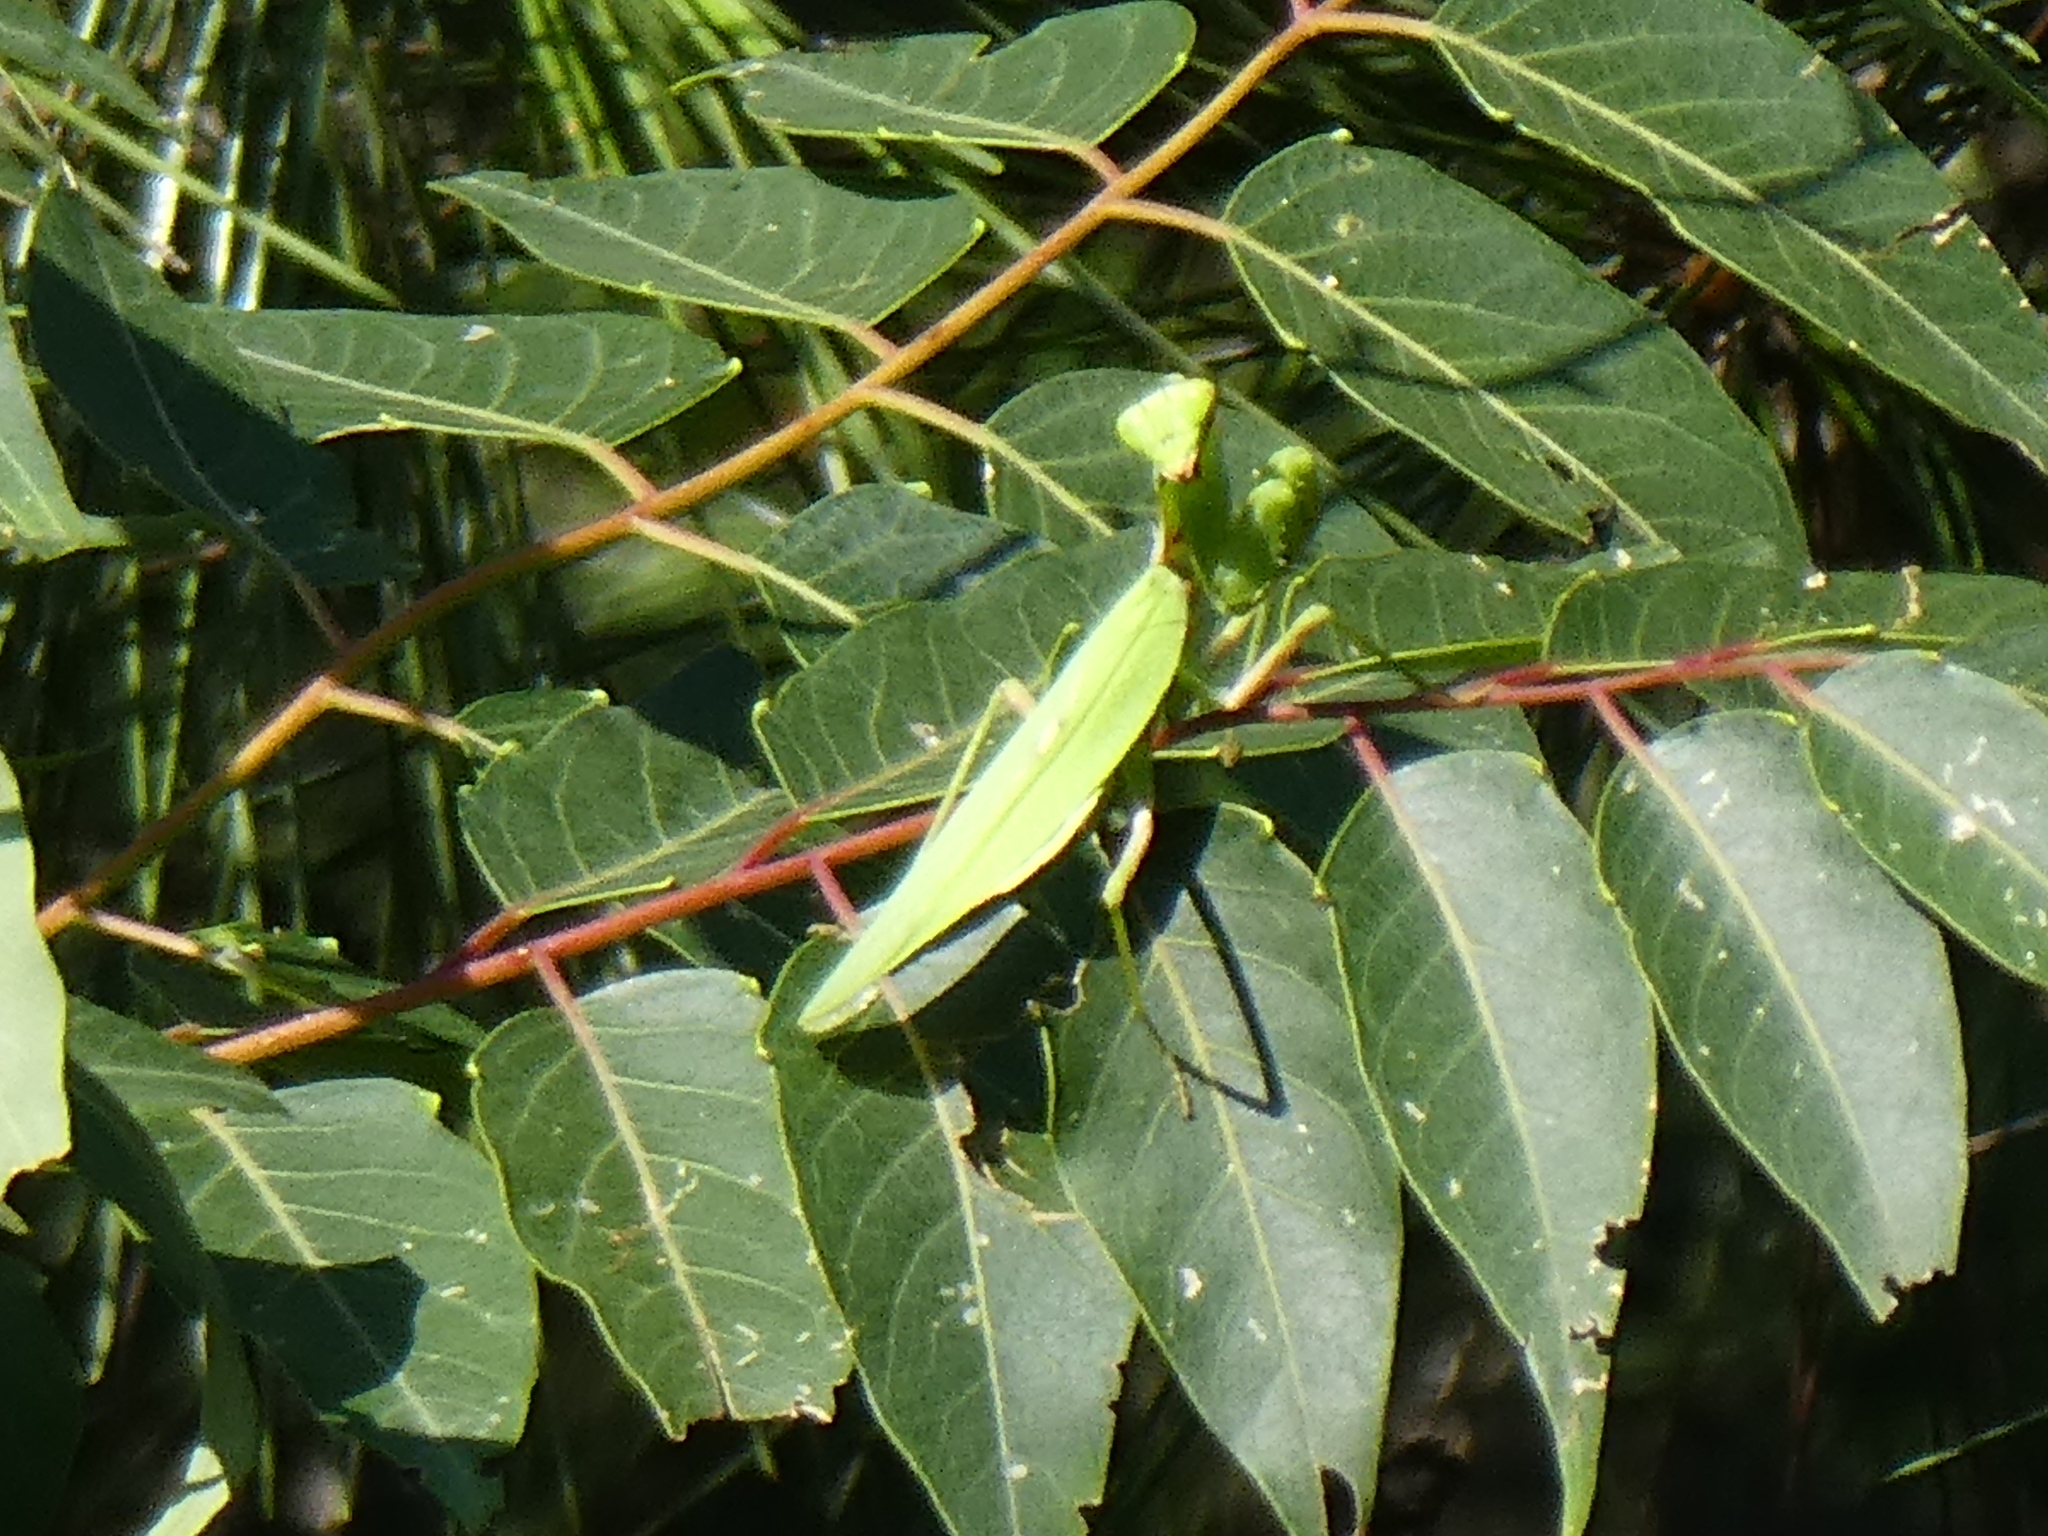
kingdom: Animalia
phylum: Arthropoda
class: Insecta
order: Mantodea
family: Mantidae
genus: Hierodula
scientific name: Hierodula patellifera
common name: Asian mantis
